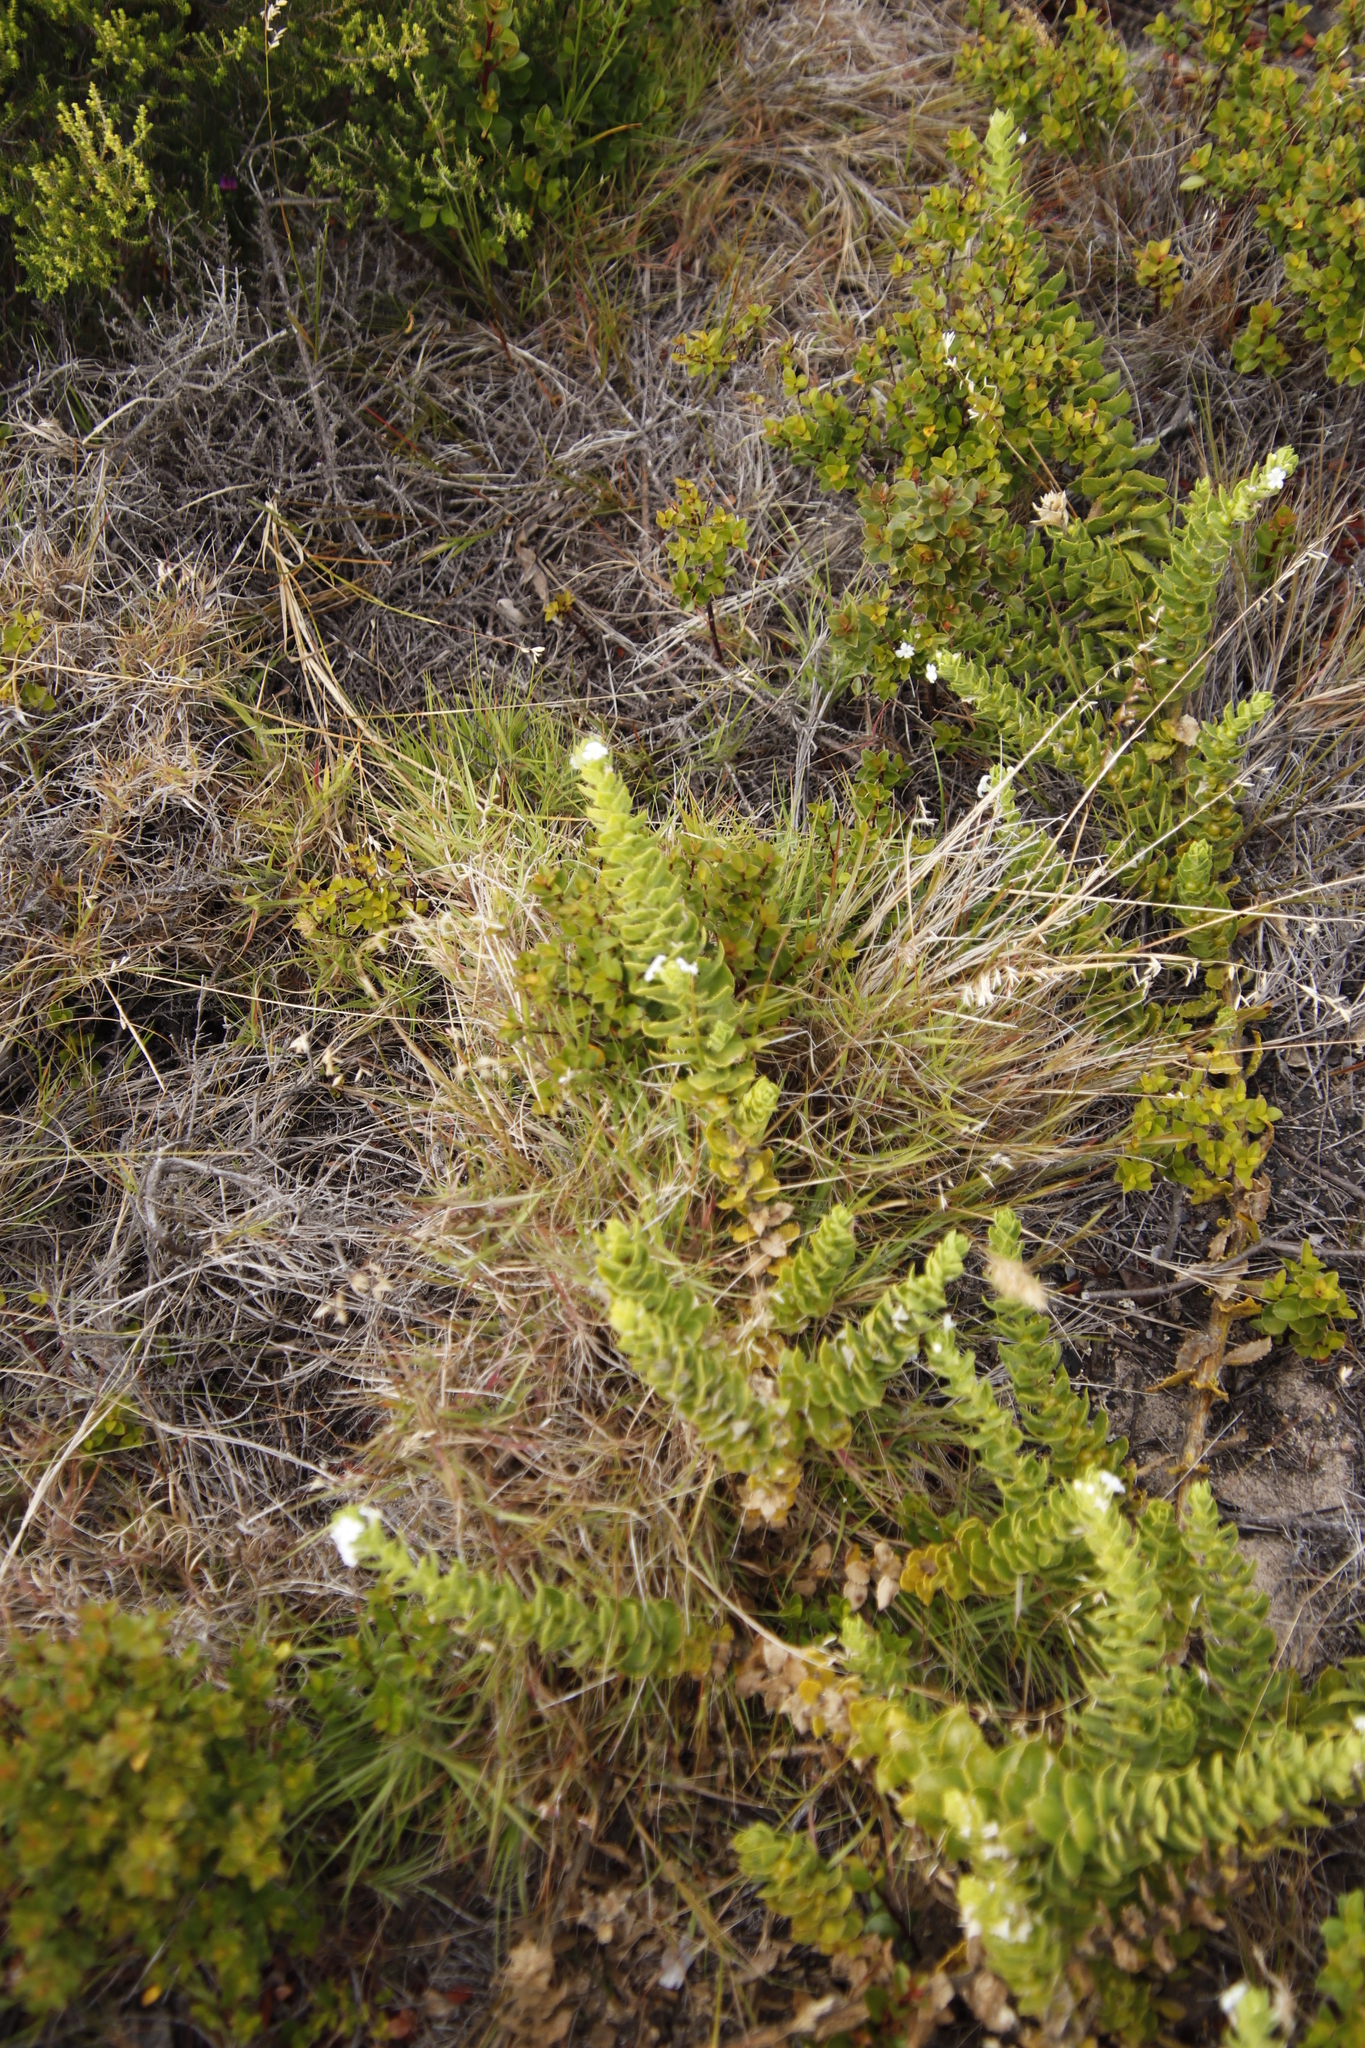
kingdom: Plantae
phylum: Tracheophyta
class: Magnoliopsida
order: Lamiales
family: Scrophulariaceae
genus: Oftia
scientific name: Oftia africana
